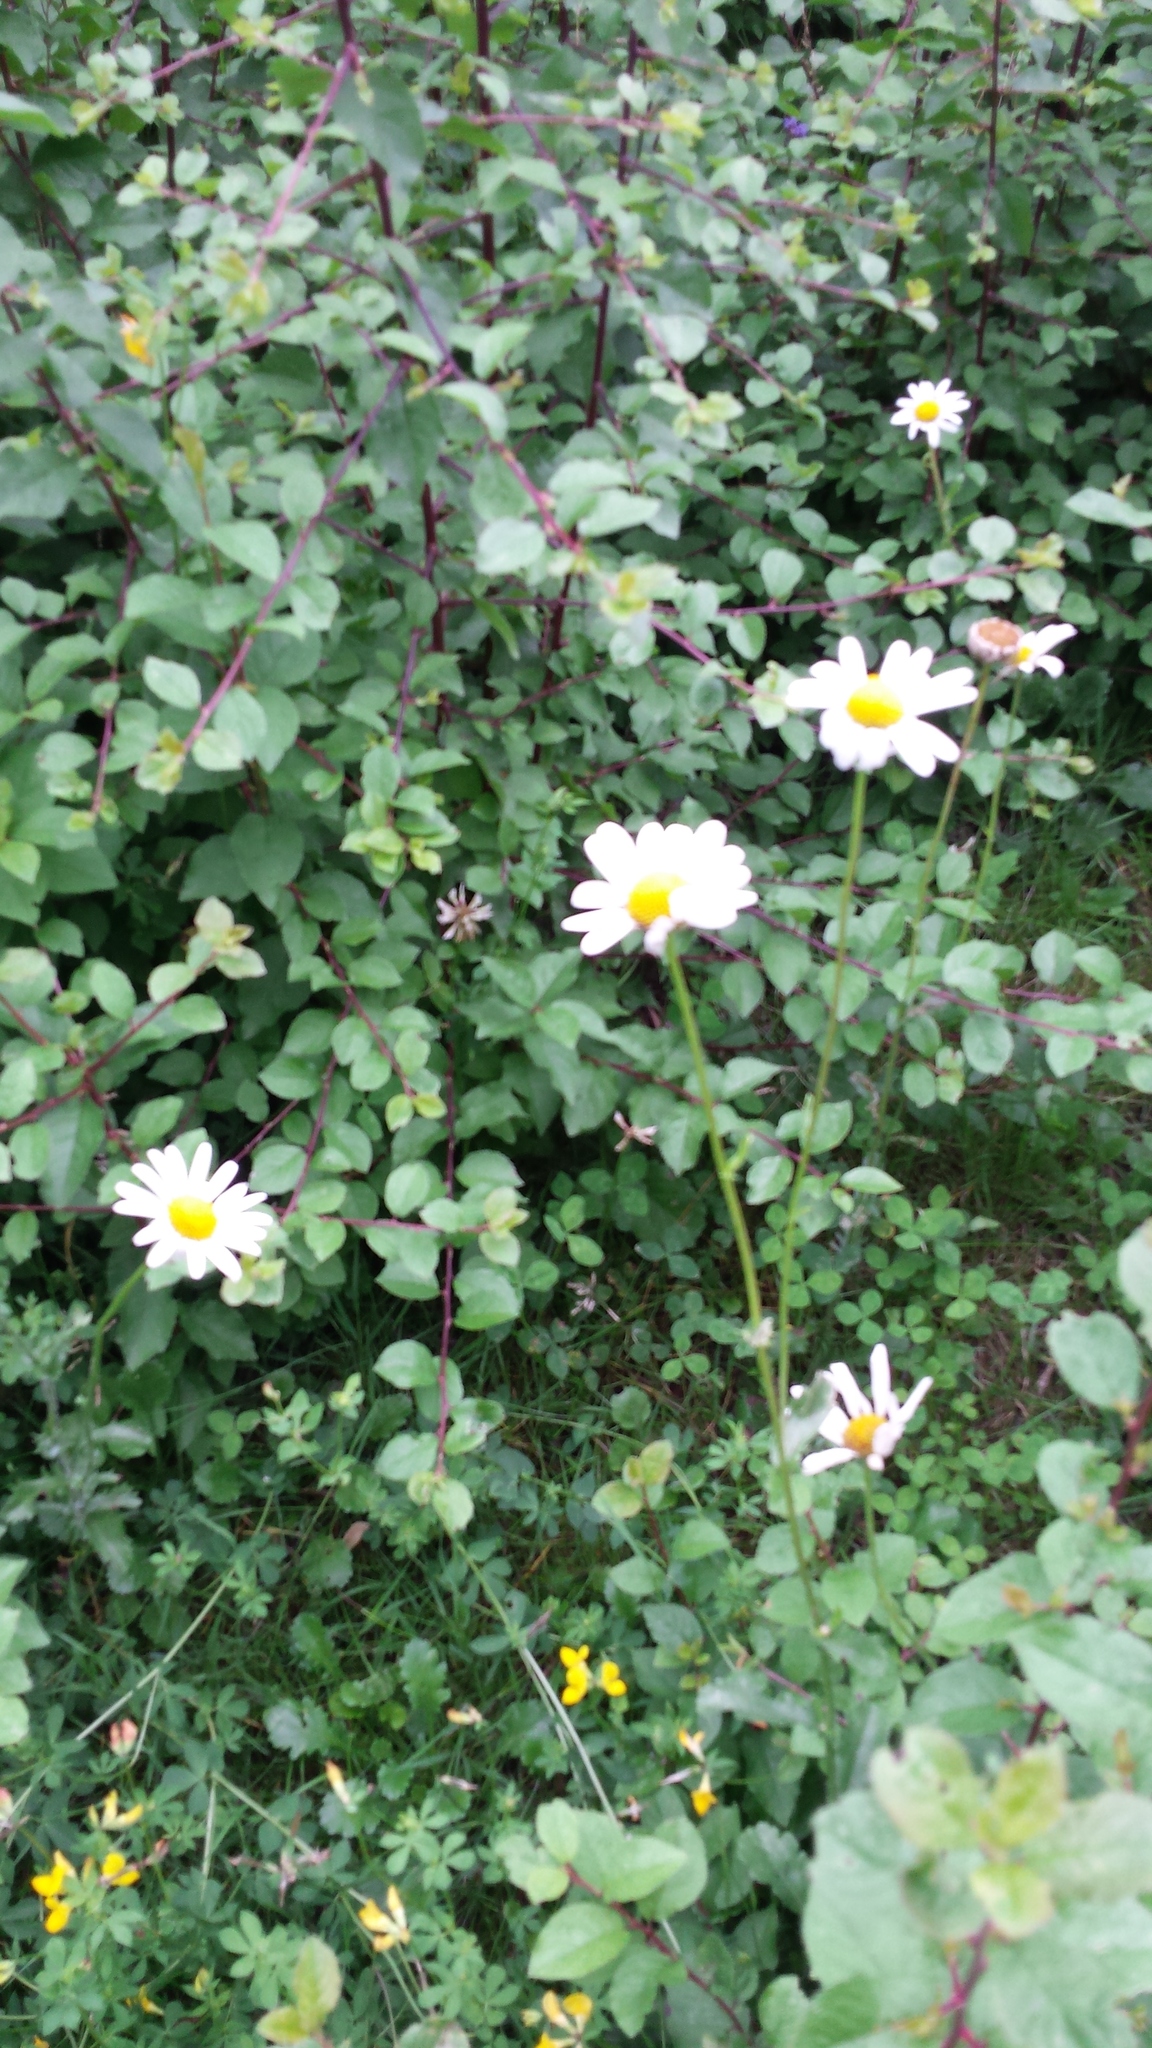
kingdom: Plantae
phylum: Tracheophyta
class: Magnoliopsida
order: Asterales
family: Asteraceae
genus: Leucanthemum
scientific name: Leucanthemum vulgare
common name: Oxeye daisy
